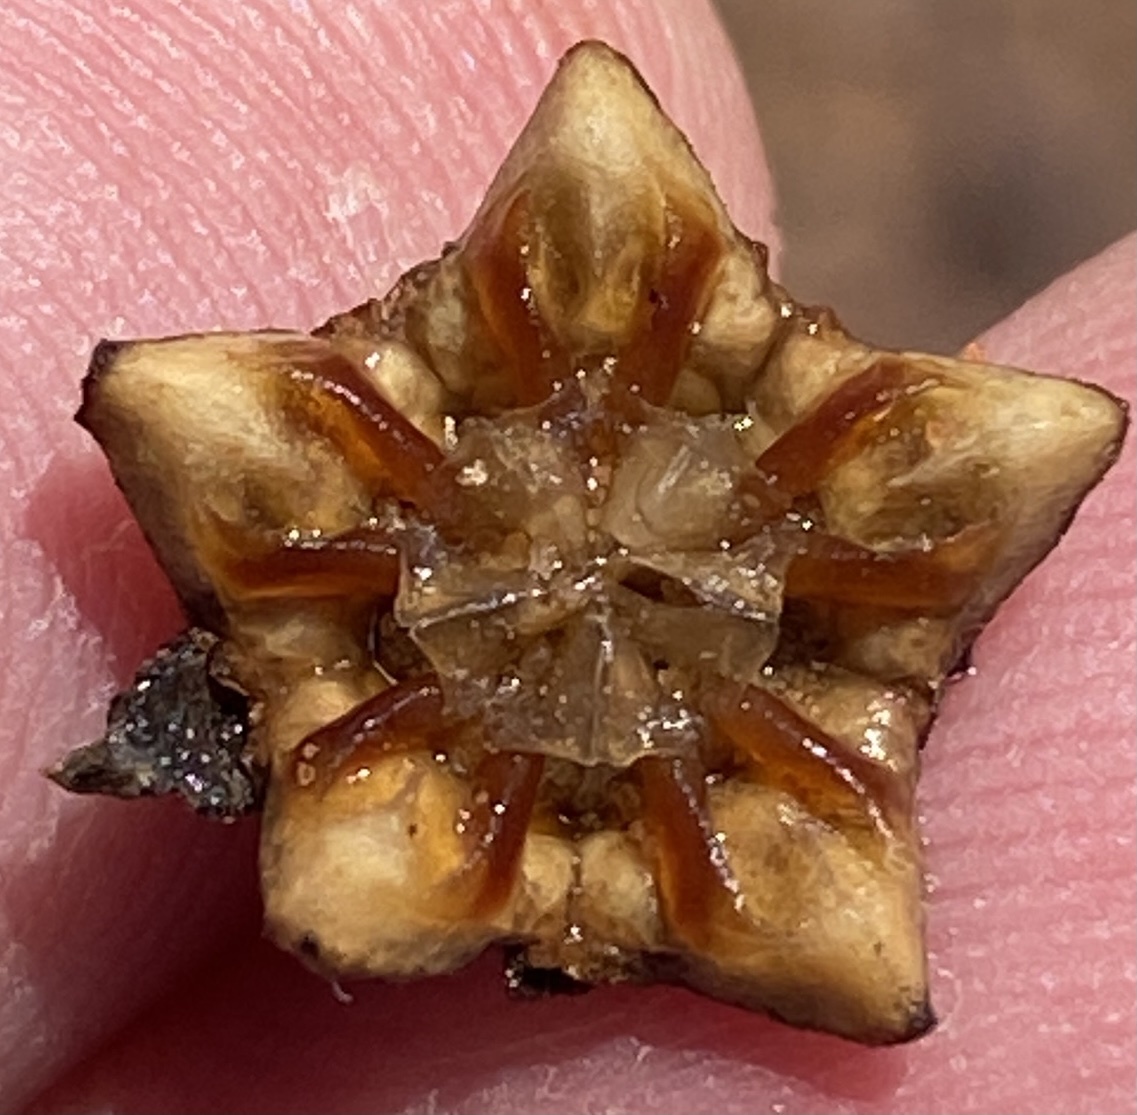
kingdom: Plantae
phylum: Tracheophyta
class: Magnoliopsida
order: Caryophyllales
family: Aizoaceae
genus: Phiambolia
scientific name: Phiambolia francisci
